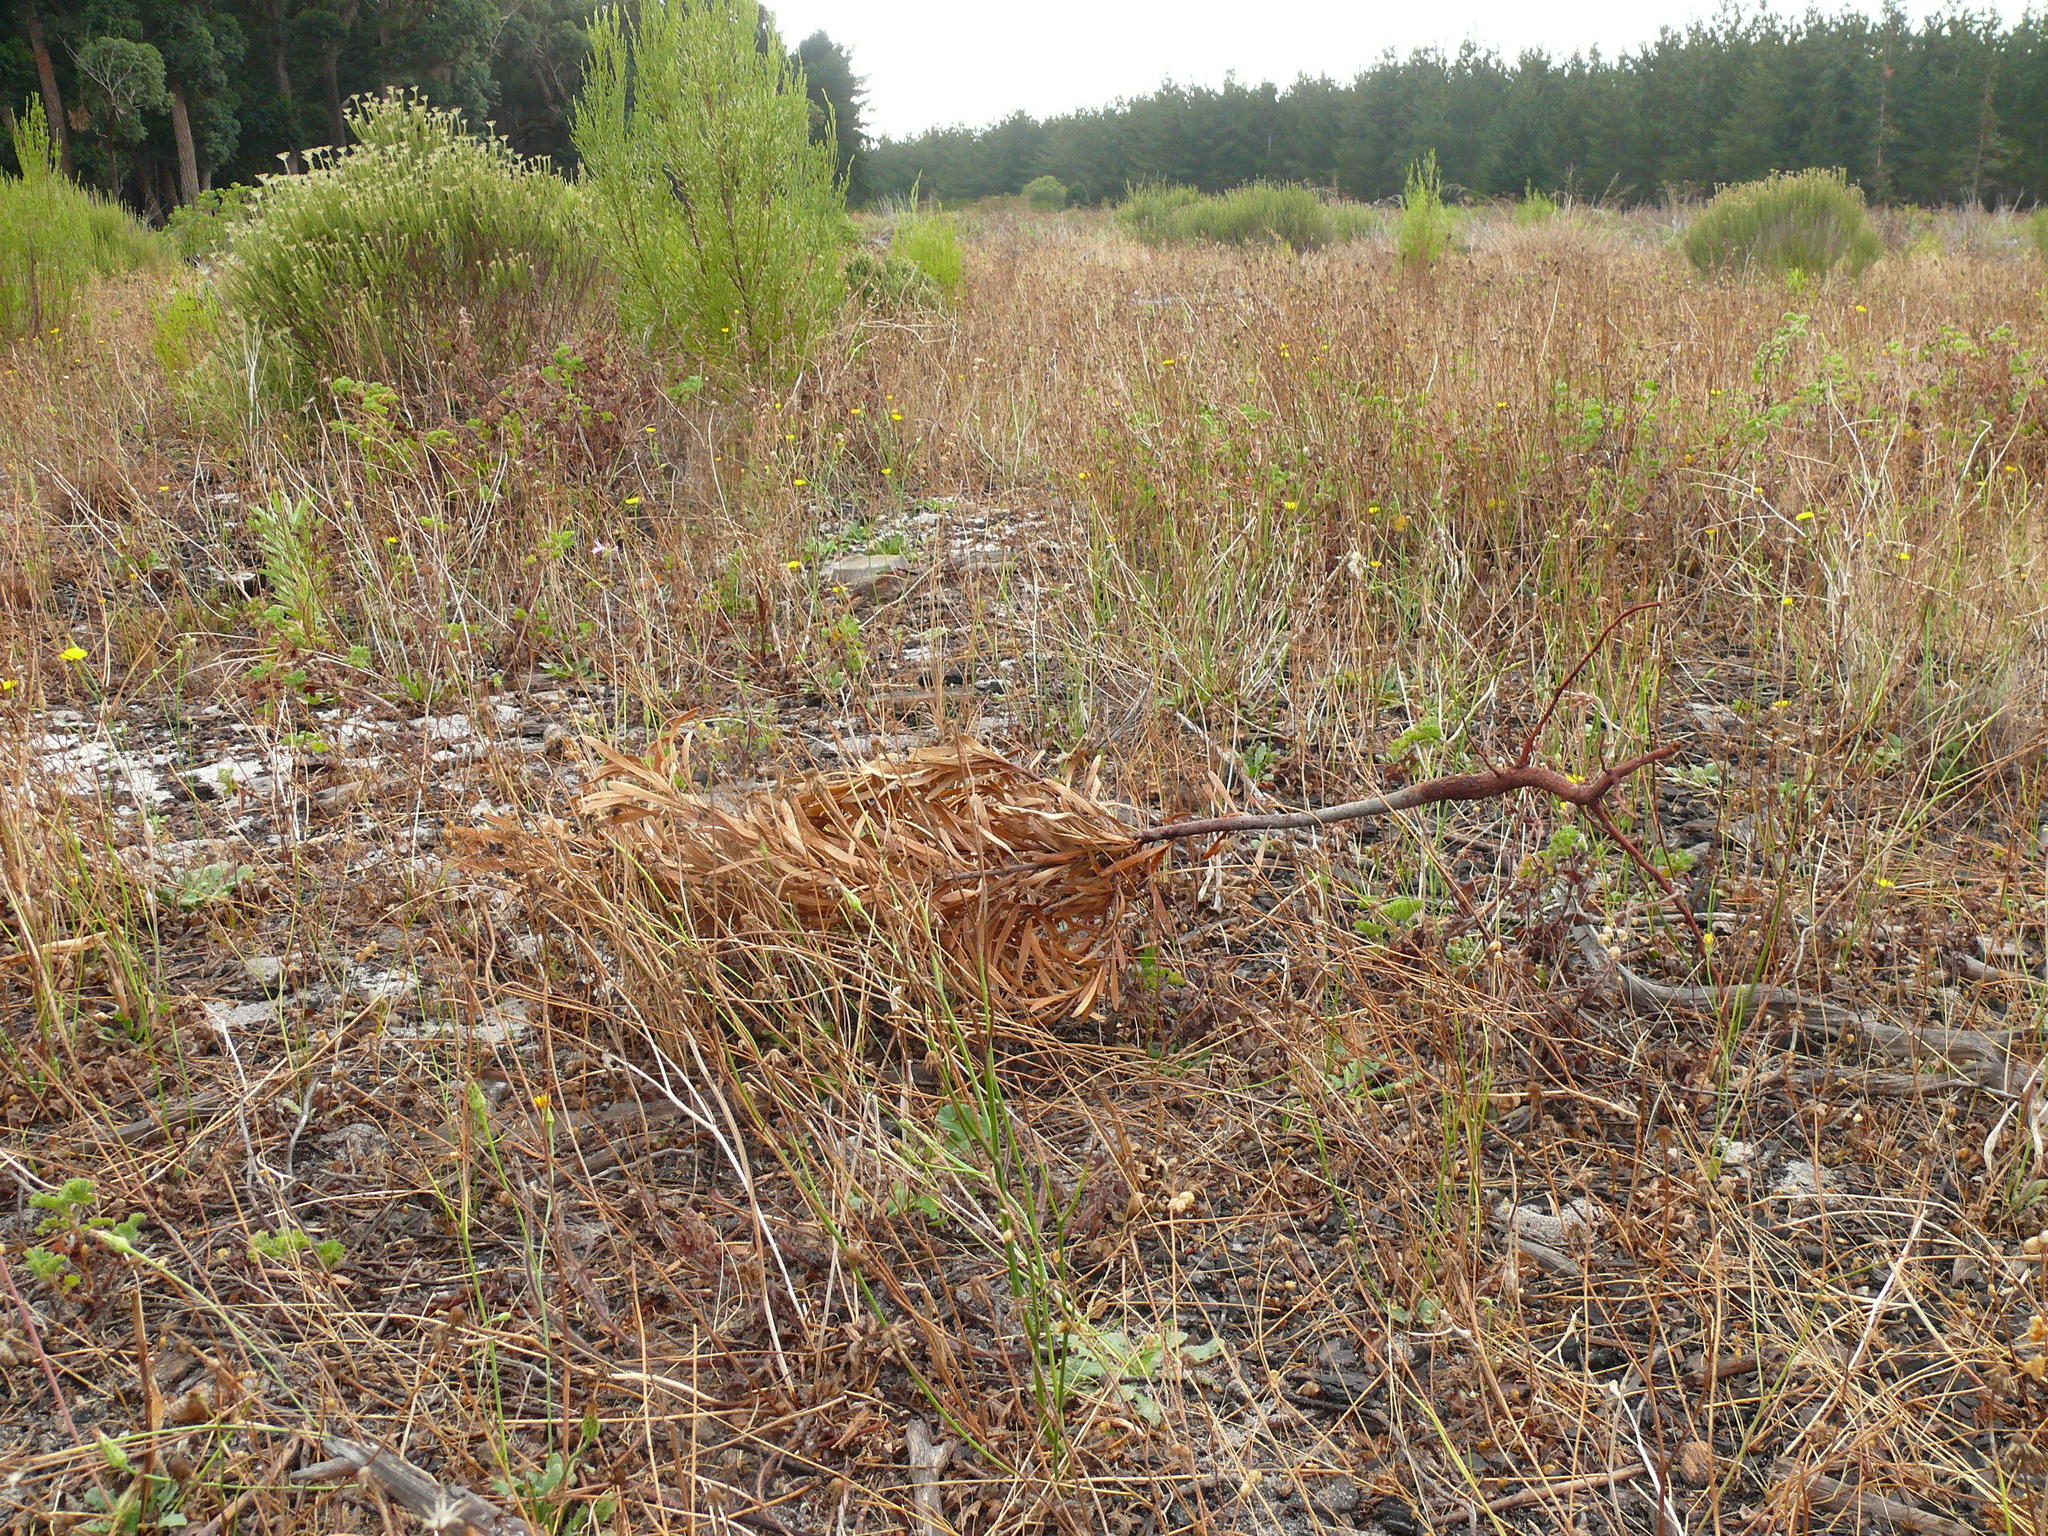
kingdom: Plantae
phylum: Tracheophyta
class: Magnoliopsida
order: Proteales
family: Proteaceae
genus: Protea
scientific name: Protea repens
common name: Sugarbush
